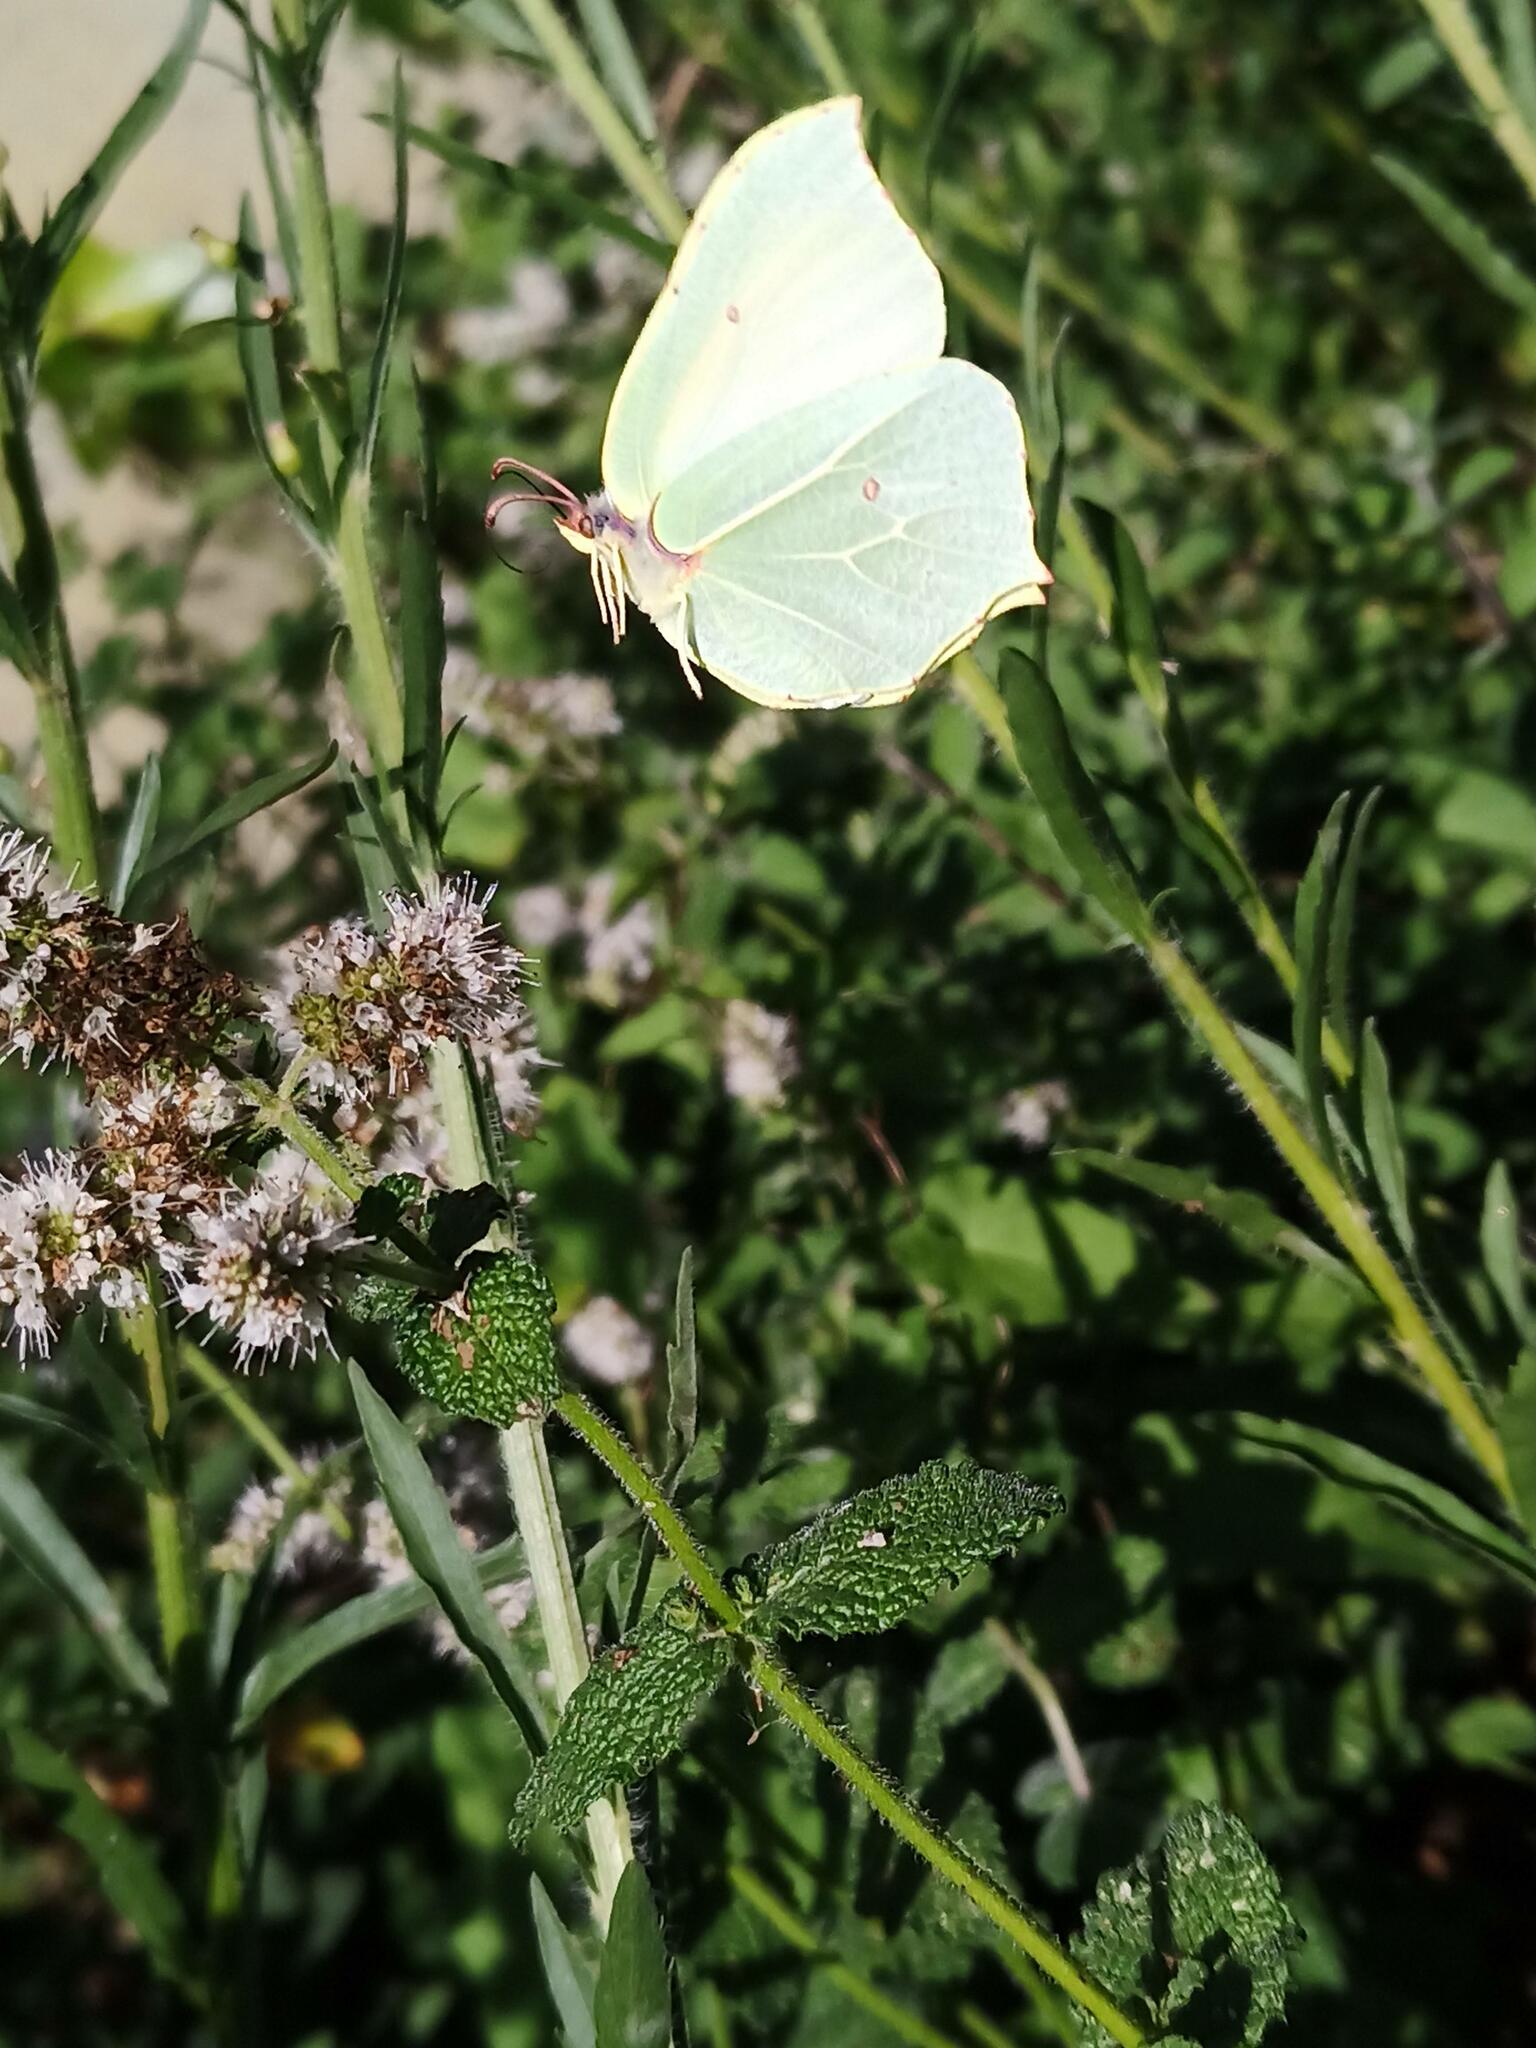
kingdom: Animalia
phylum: Arthropoda
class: Insecta
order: Lepidoptera
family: Pieridae
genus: Gonepteryx
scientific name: Gonepteryx rhamni
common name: Brimstone
